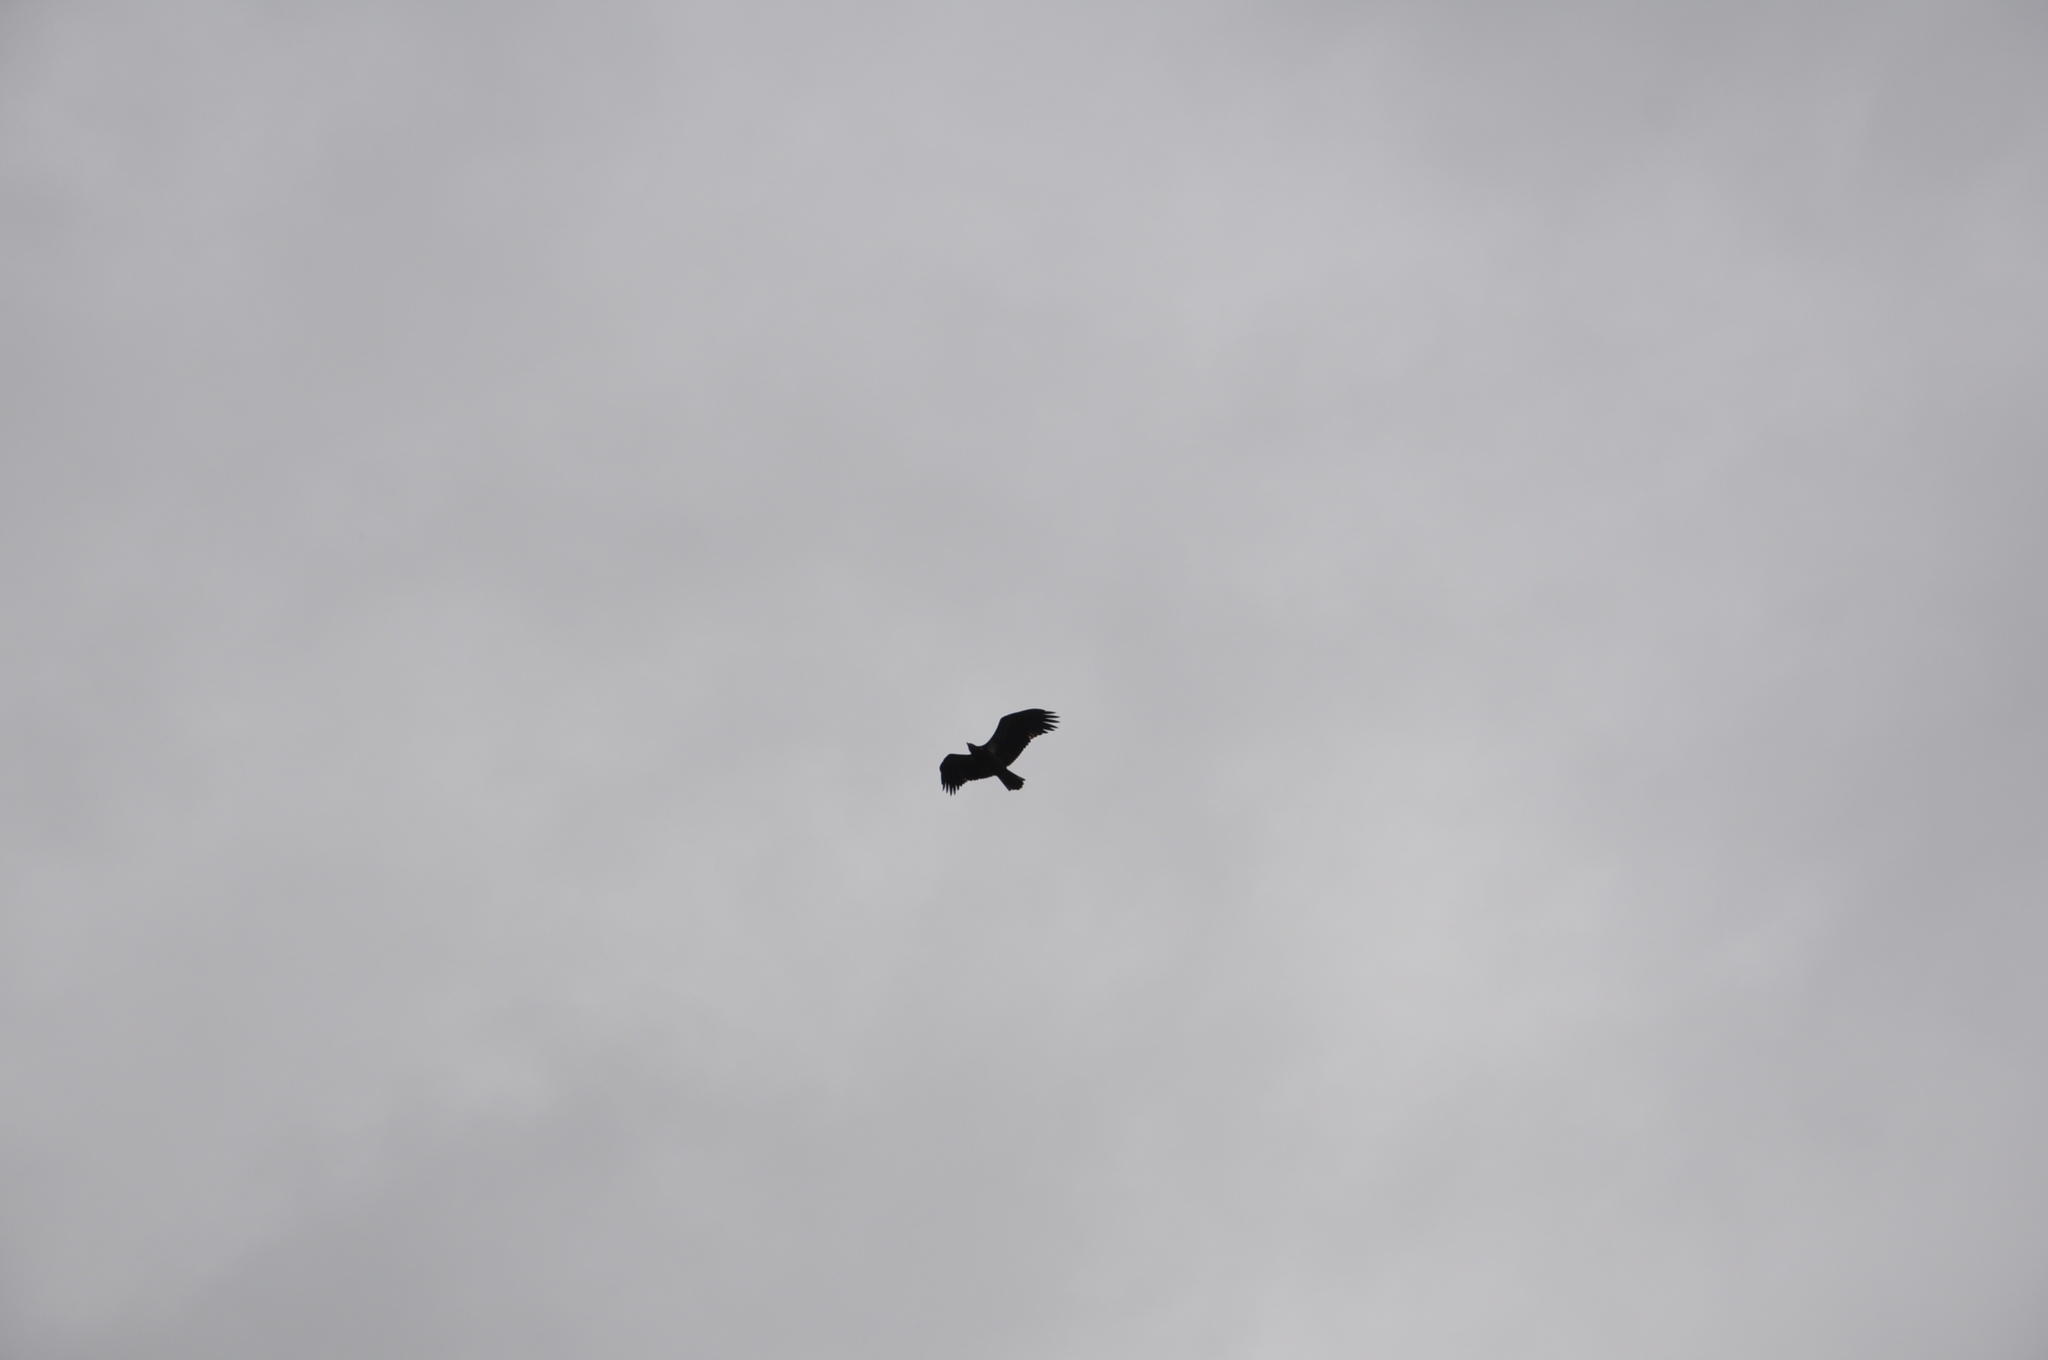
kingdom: Animalia
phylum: Chordata
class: Aves
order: Accipitriformes
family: Accipitridae
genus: Haliaeetus
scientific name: Haliaeetus leucocephalus
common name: Bald eagle
